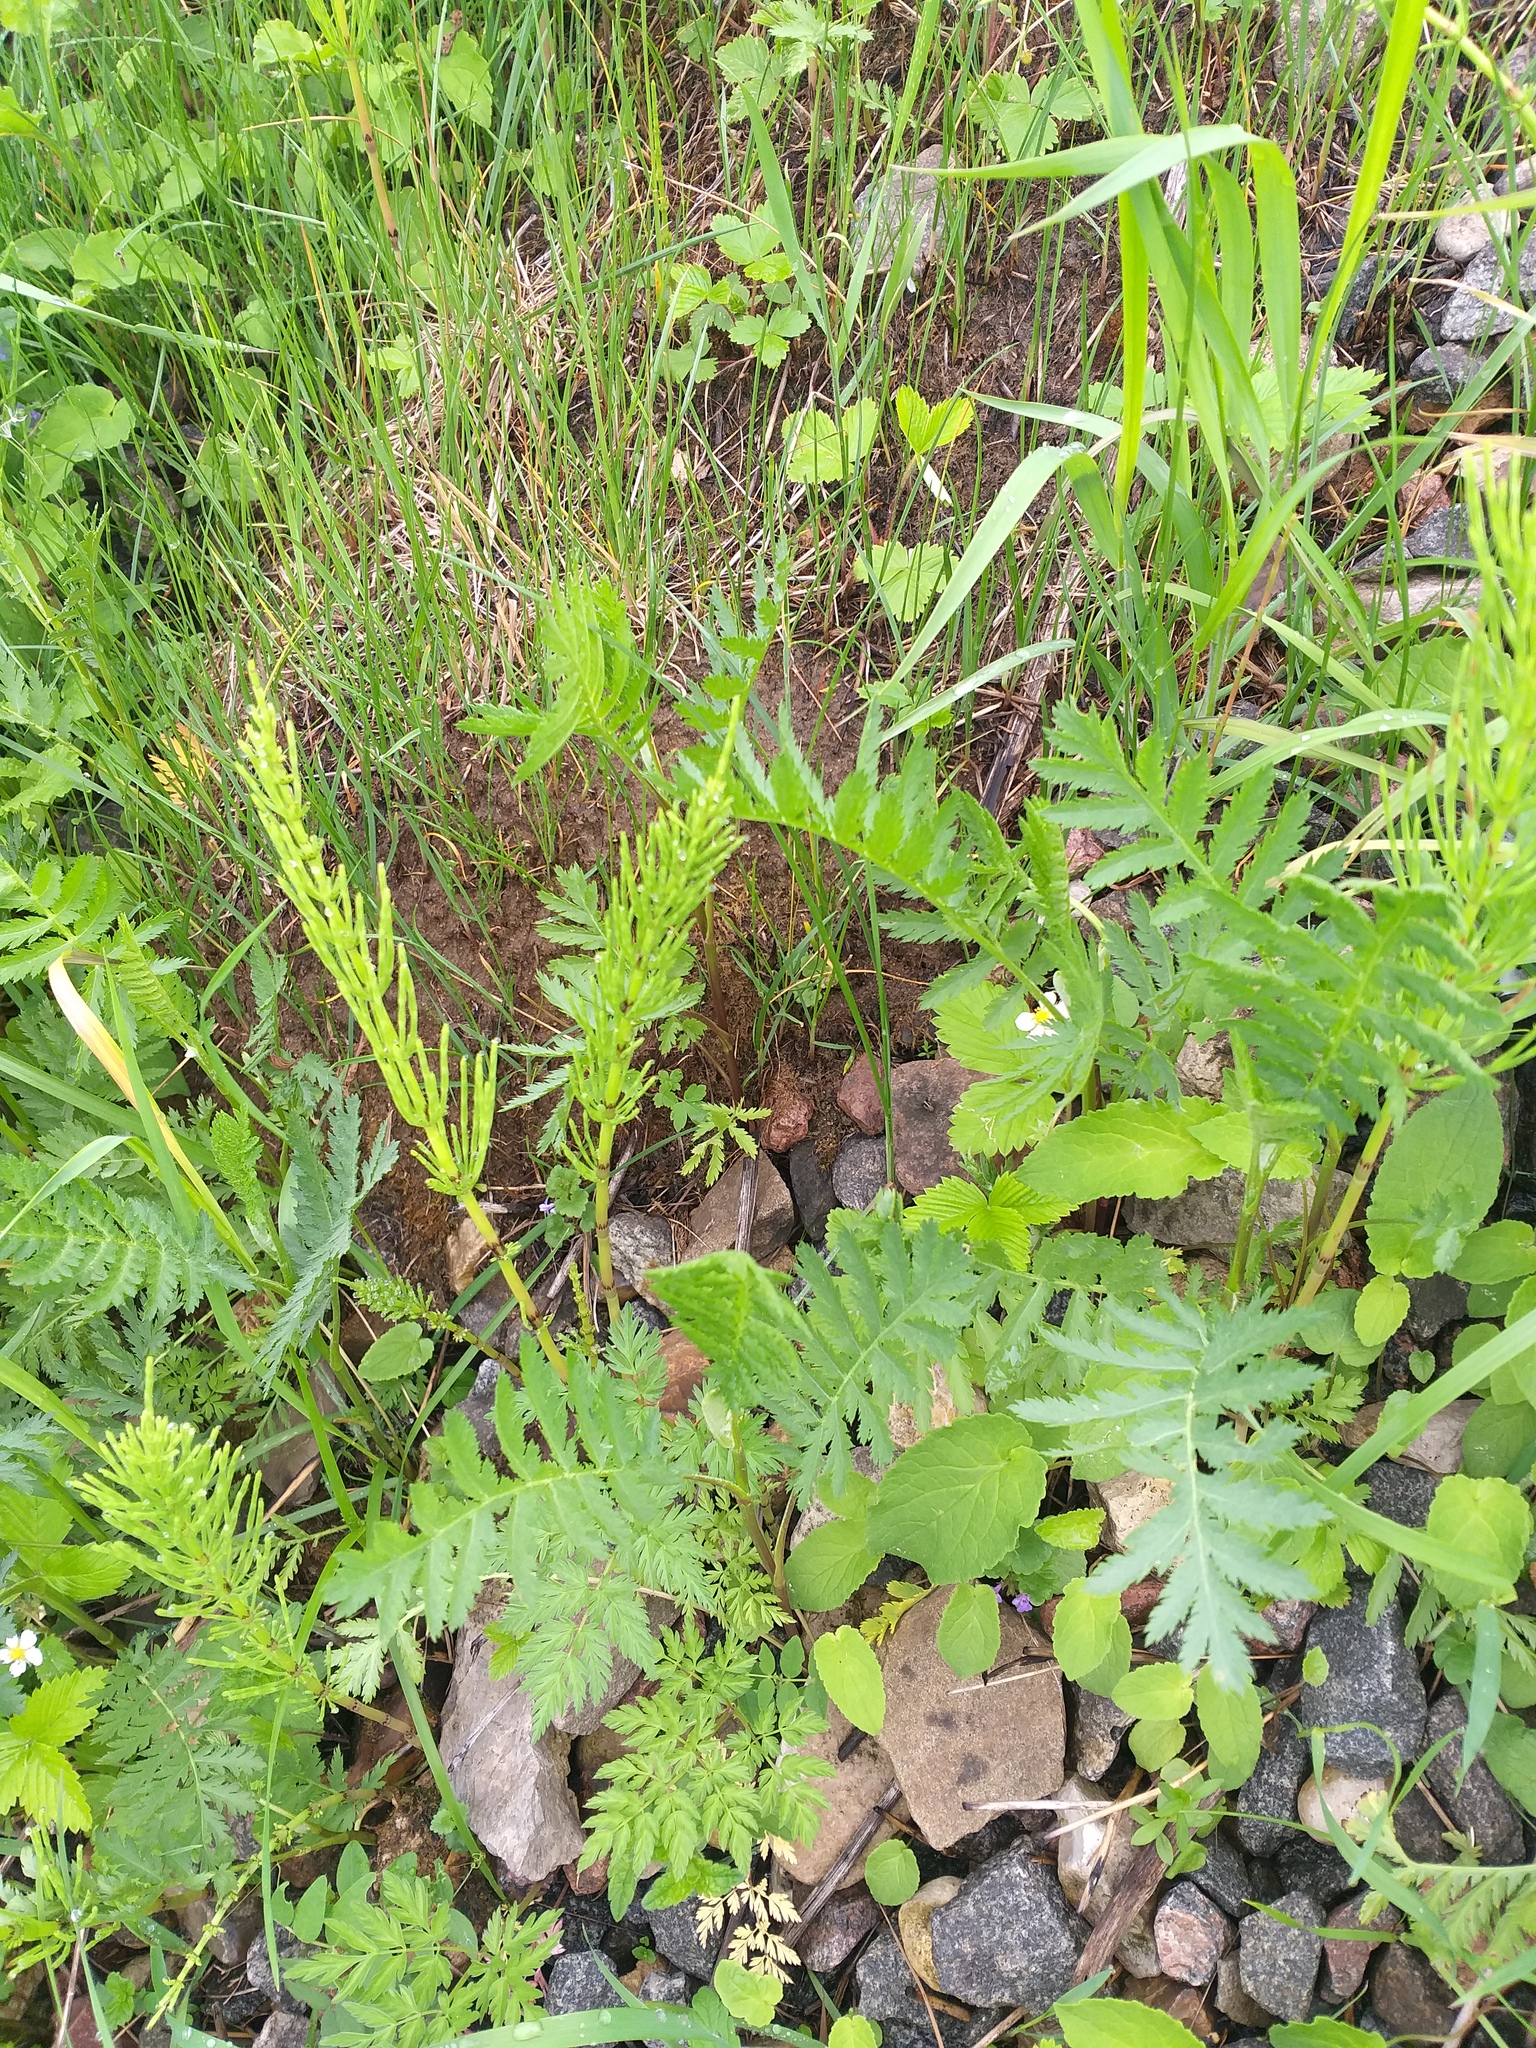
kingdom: Plantae
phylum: Tracheophyta
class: Magnoliopsida
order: Asterales
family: Asteraceae
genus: Tanacetum
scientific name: Tanacetum vulgare
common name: Common tansy
